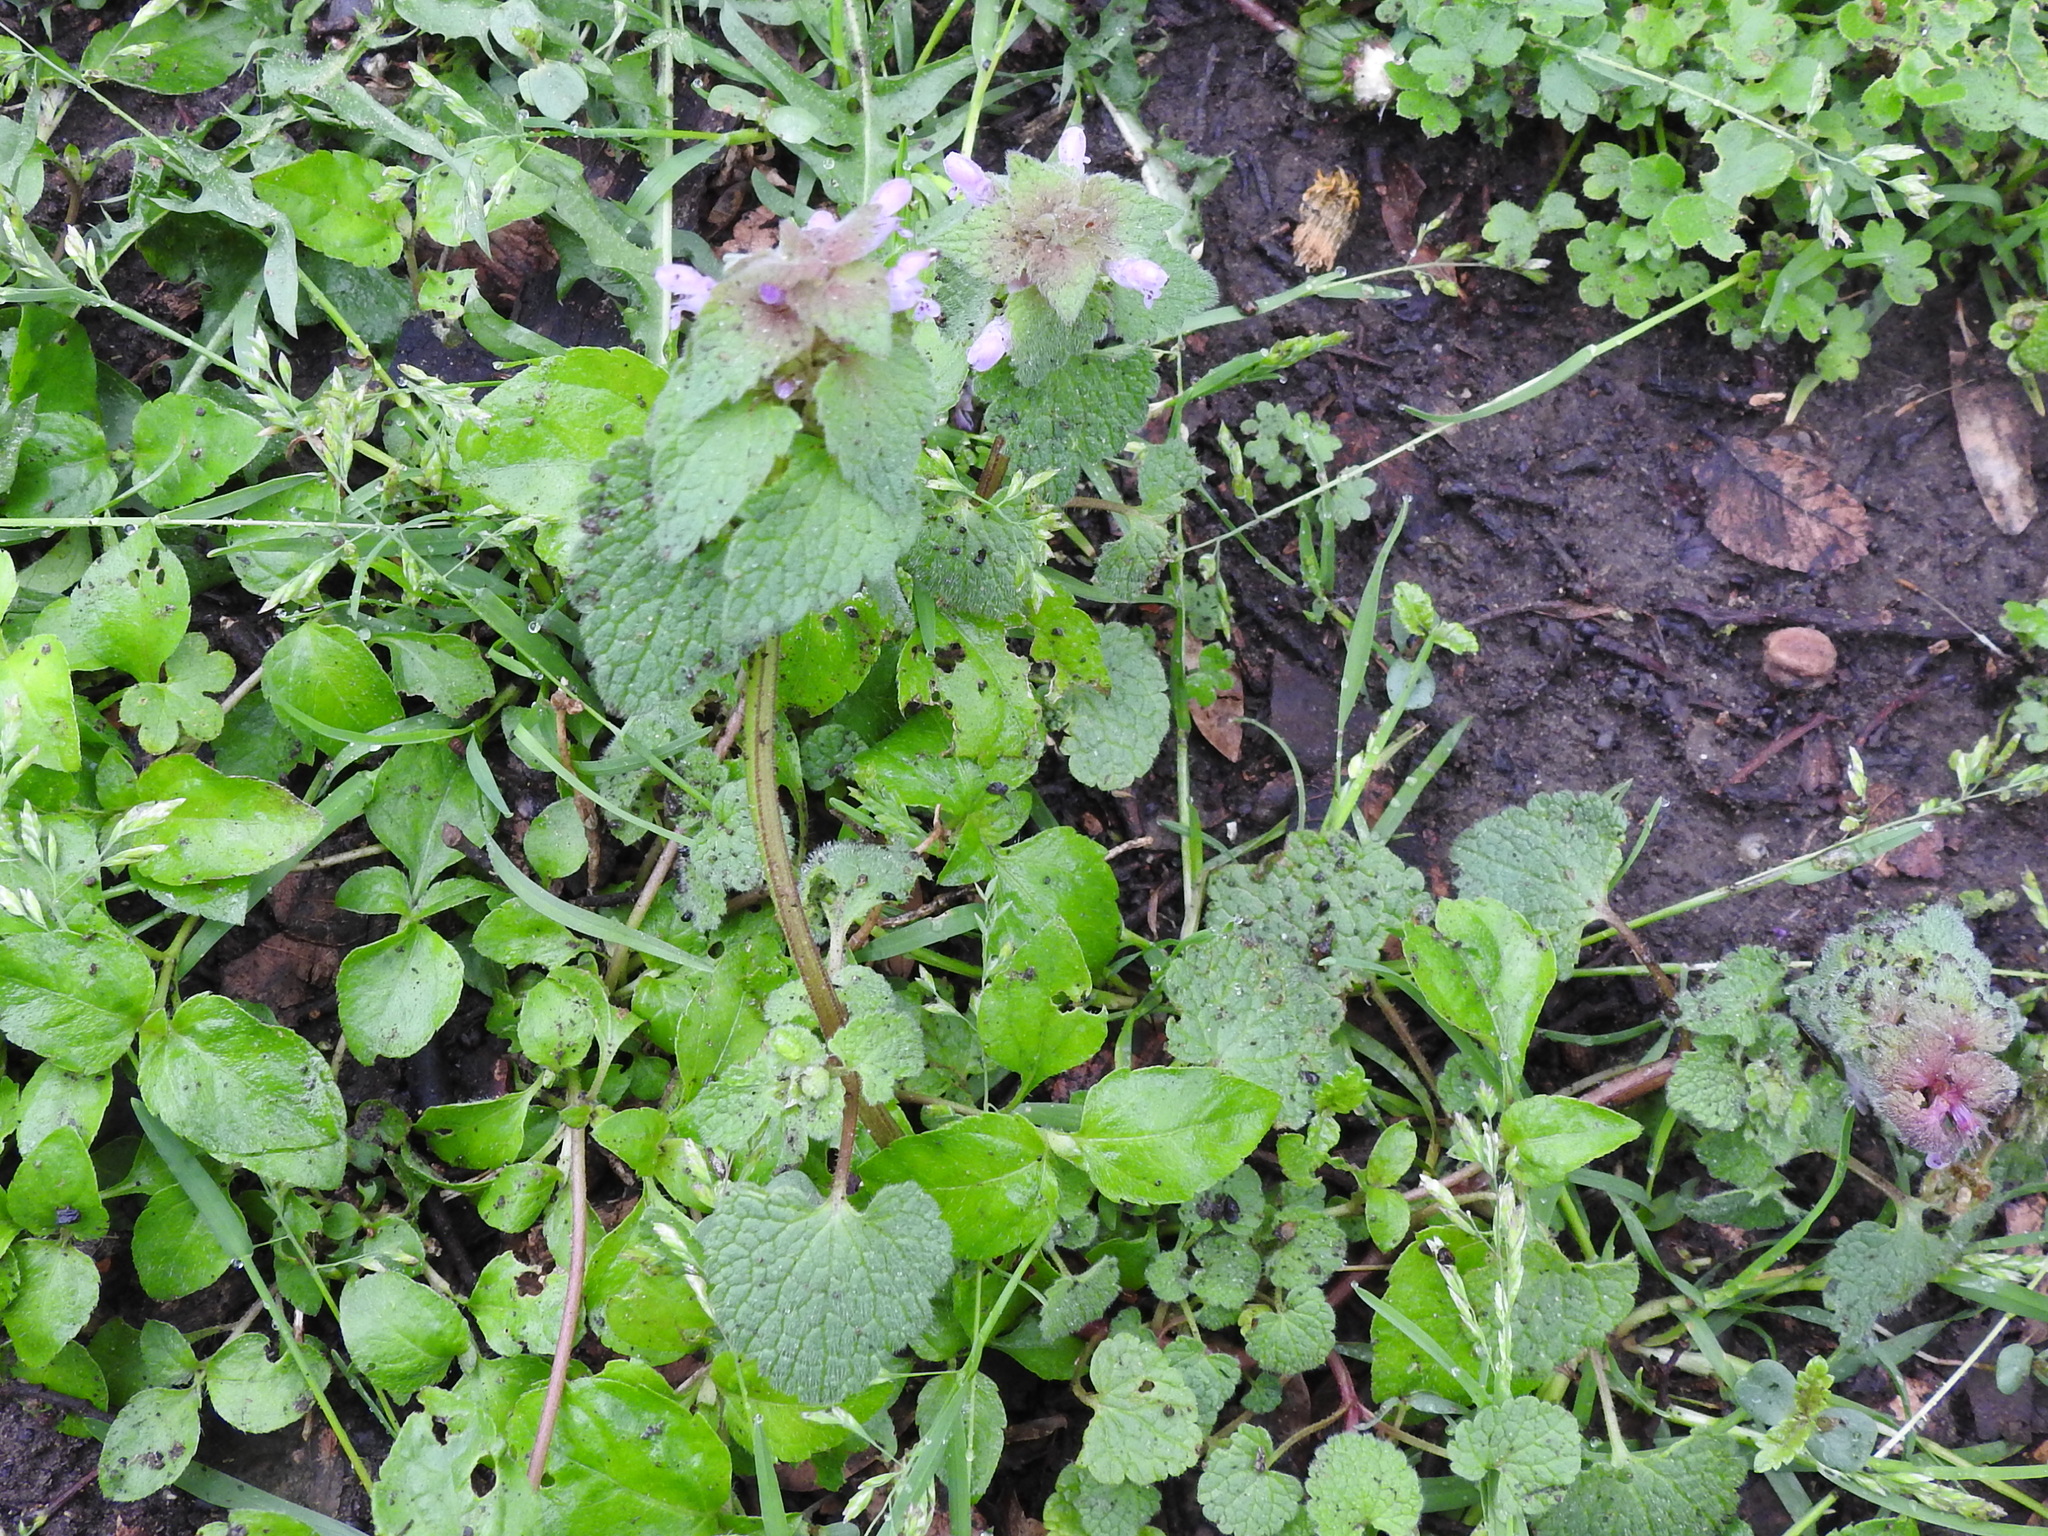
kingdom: Plantae
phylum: Tracheophyta
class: Magnoliopsida
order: Lamiales
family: Lamiaceae
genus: Lamium
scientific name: Lamium purpureum
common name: Red dead-nettle
